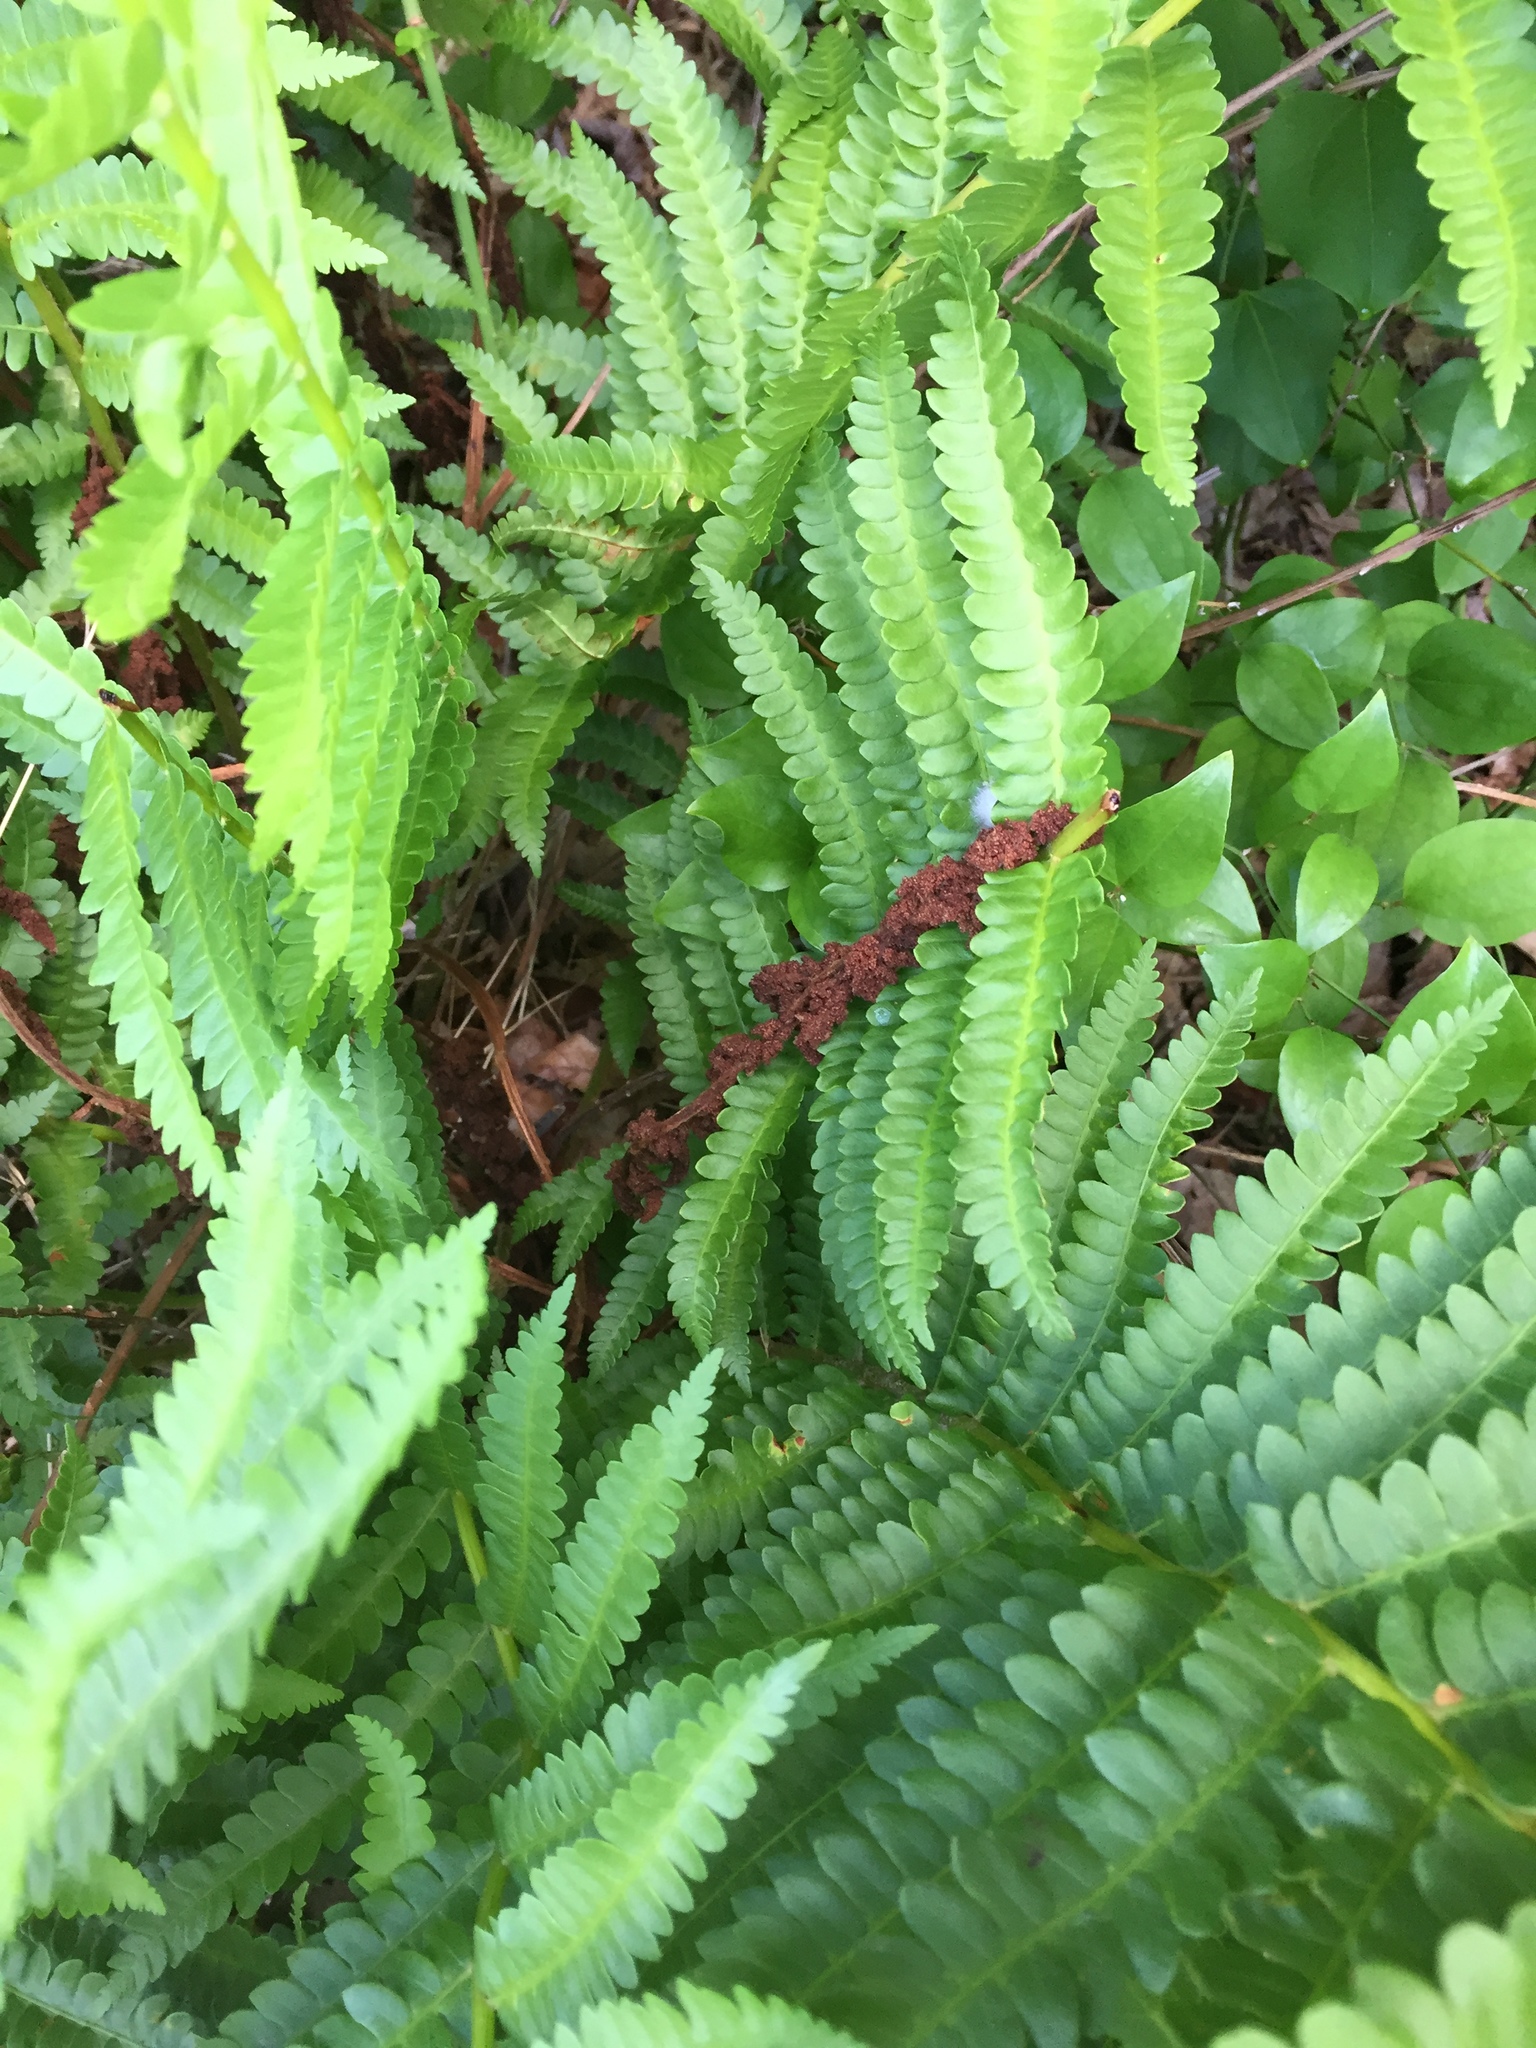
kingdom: Plantae
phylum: Tracheophyta
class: Polypodiopsida
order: Osmundales
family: Osmundaceae
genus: Osmundastrum
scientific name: Osmundastrum cinnamomeum
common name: Cinnamon fern
